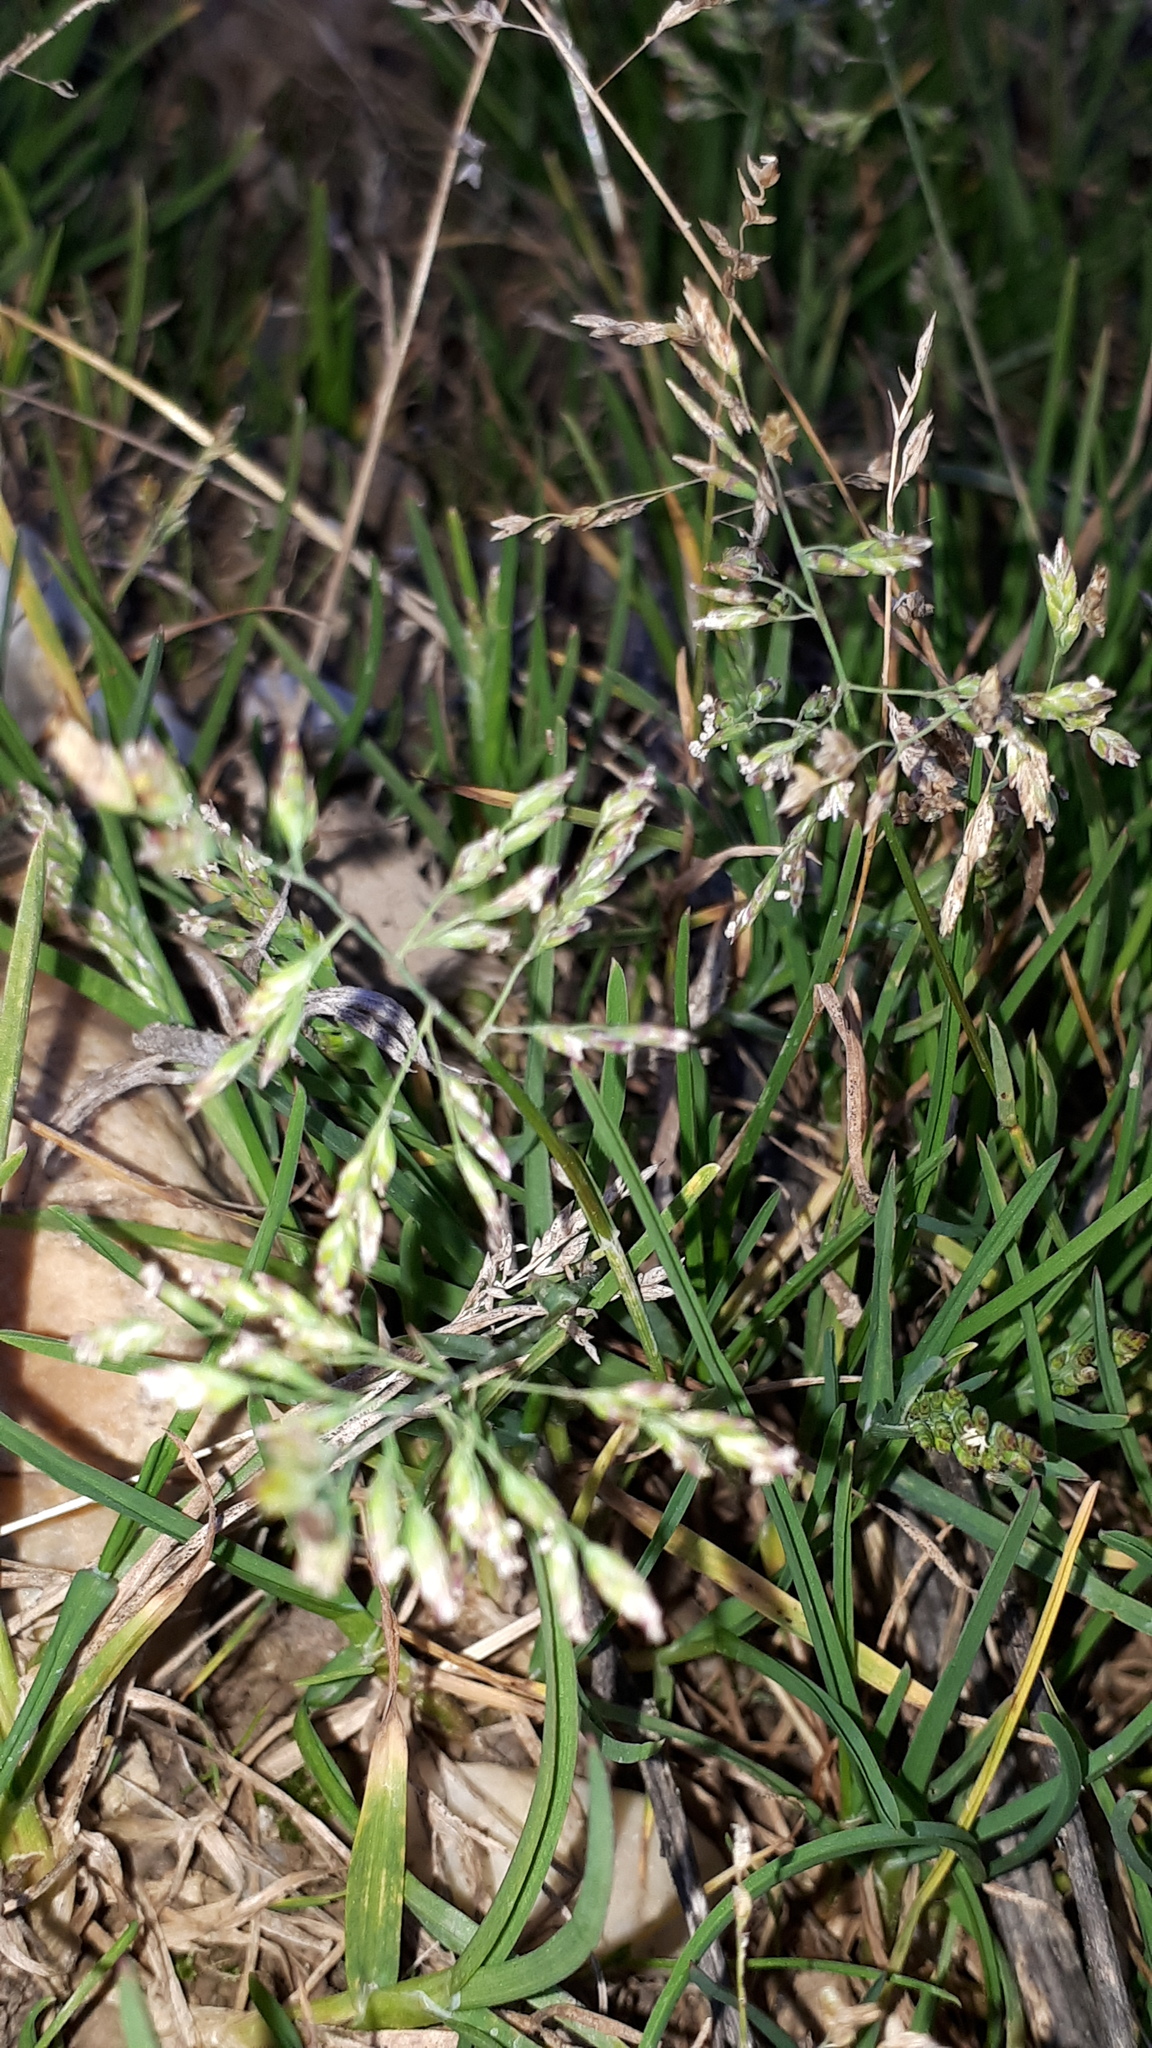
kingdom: Plantae
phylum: Tracheophyta
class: Liliopsida
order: Poales
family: Poaceae
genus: Poa
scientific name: Poa annua
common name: Annual bluegrass
